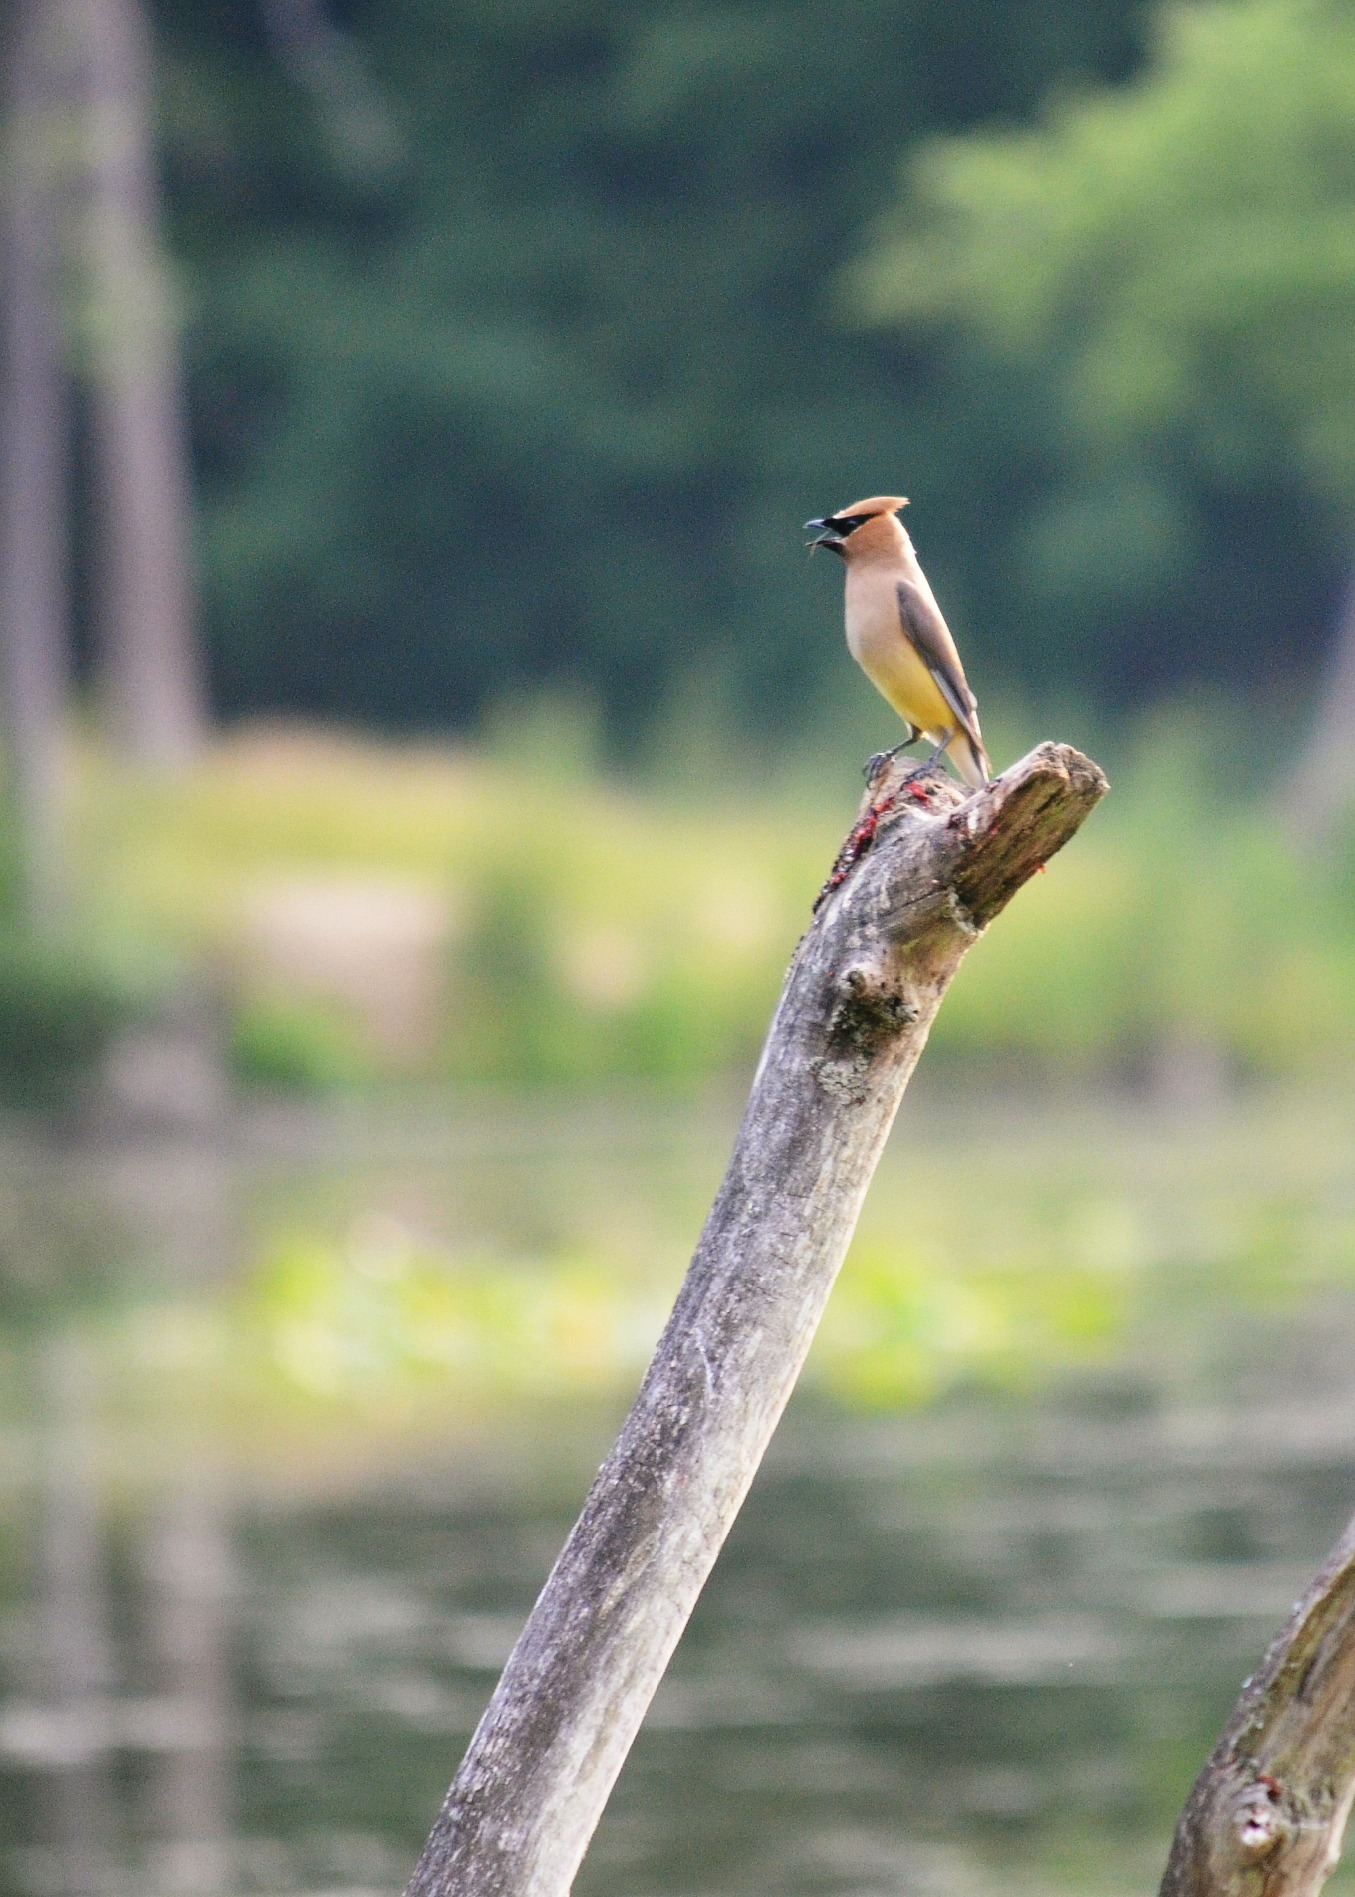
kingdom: Animalia
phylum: Chordata
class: Aves
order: Passeriformes
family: Bombycillidae
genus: Bombycilla
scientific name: Bombycilla cedrorum
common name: Cedar waxwing
